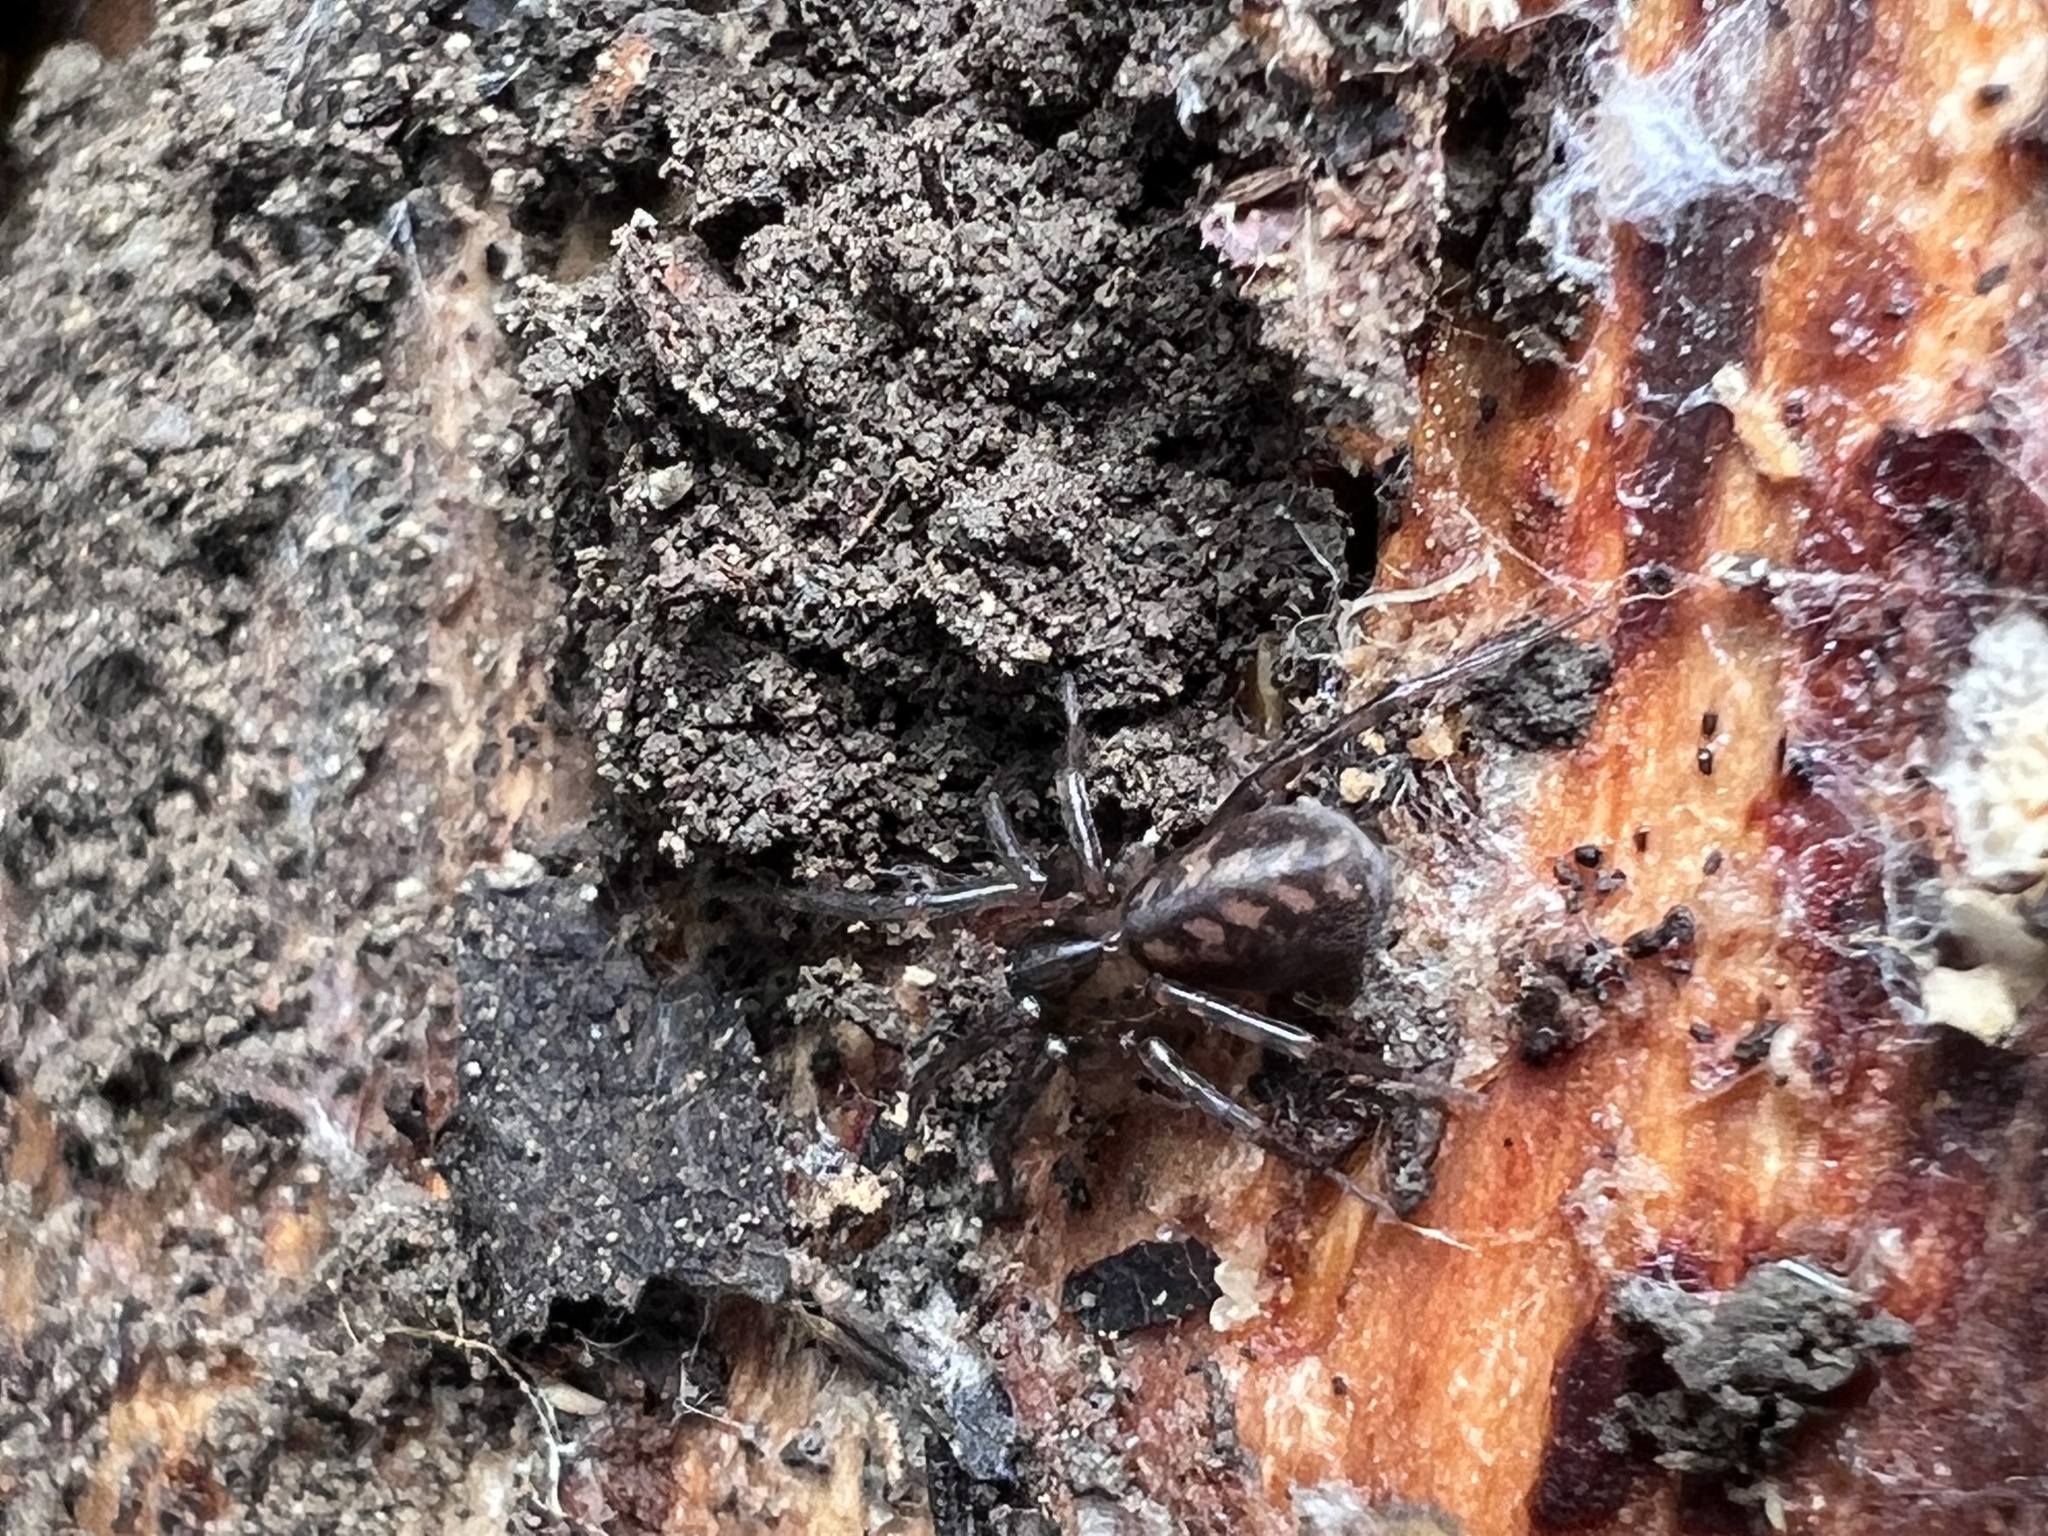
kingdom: Animalia
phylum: Arthropoda
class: Arachnida
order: Araneae
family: Cybaeidae
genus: Cryphoeca
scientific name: Cryphoeca exlineae
